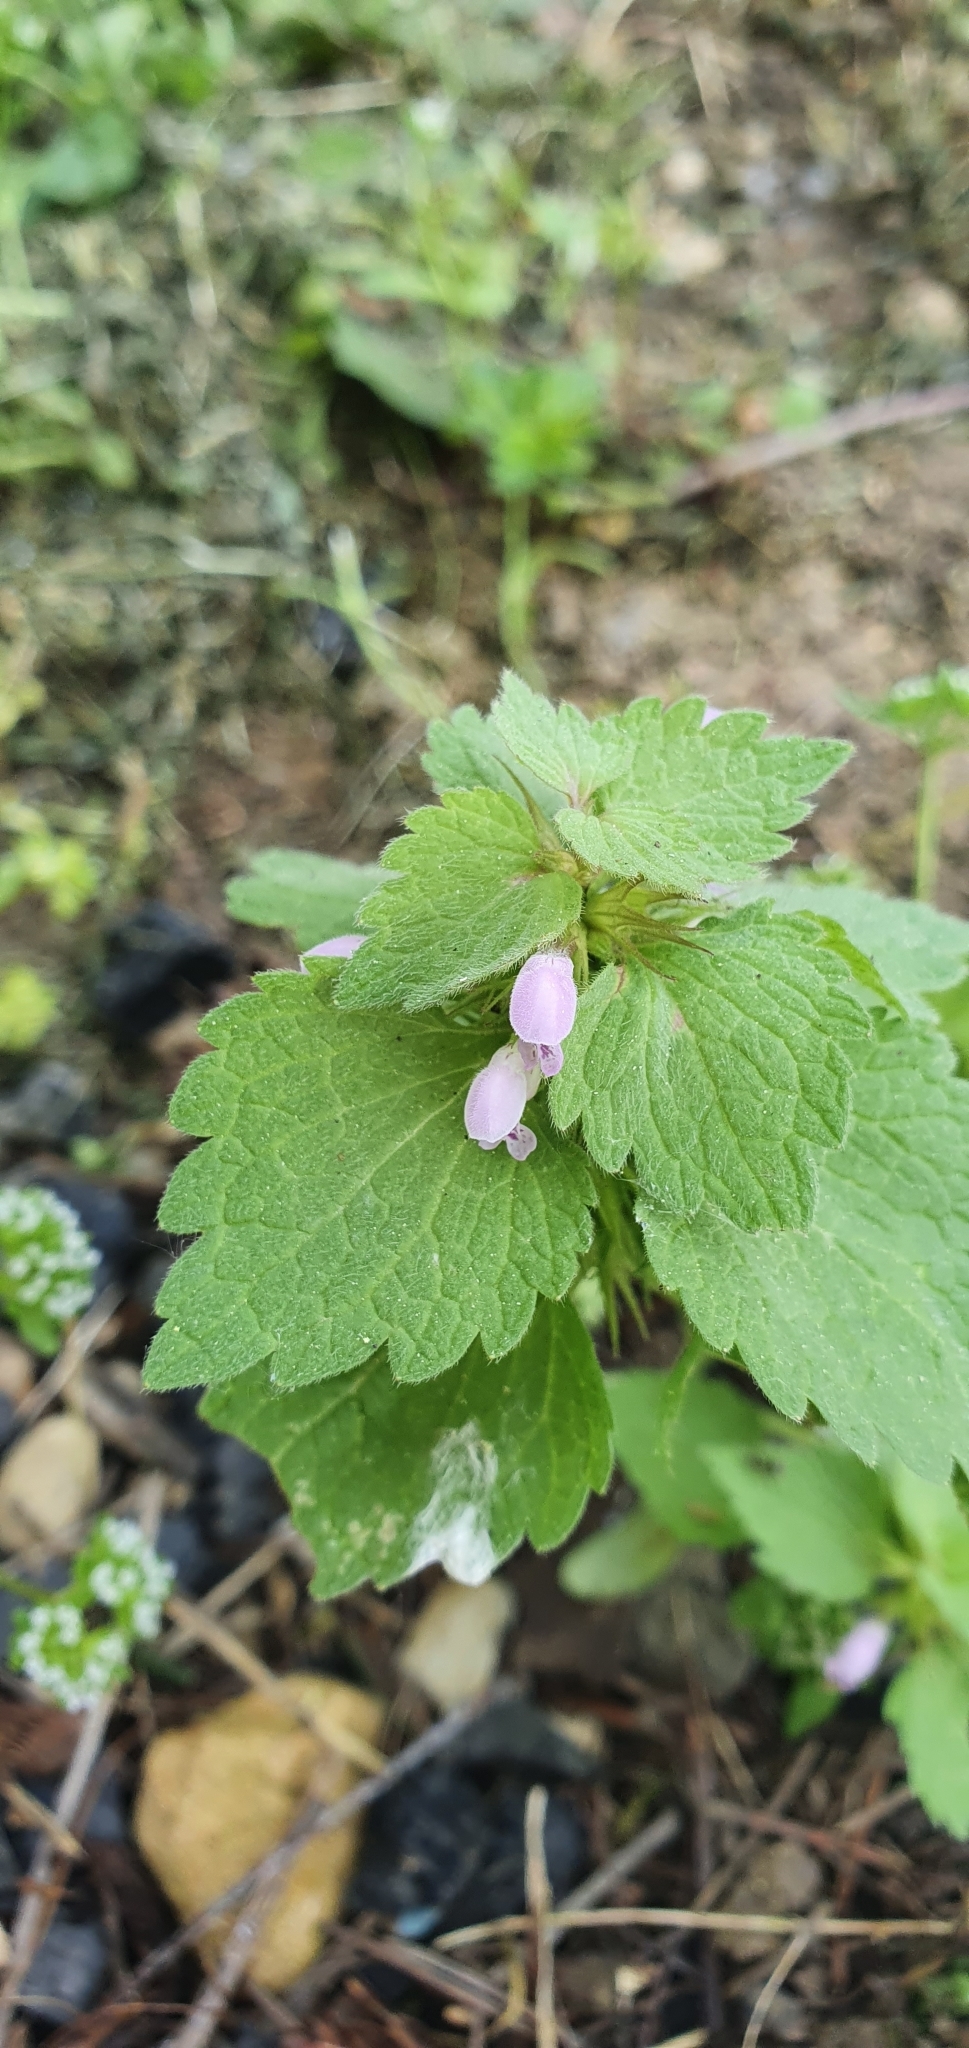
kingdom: Plantae
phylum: Tracheophyta
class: Magnoliopsida
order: Lamiales
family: Lamiaceae
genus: Lamium
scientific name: Lamium purpureum
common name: Red dead-nettle
